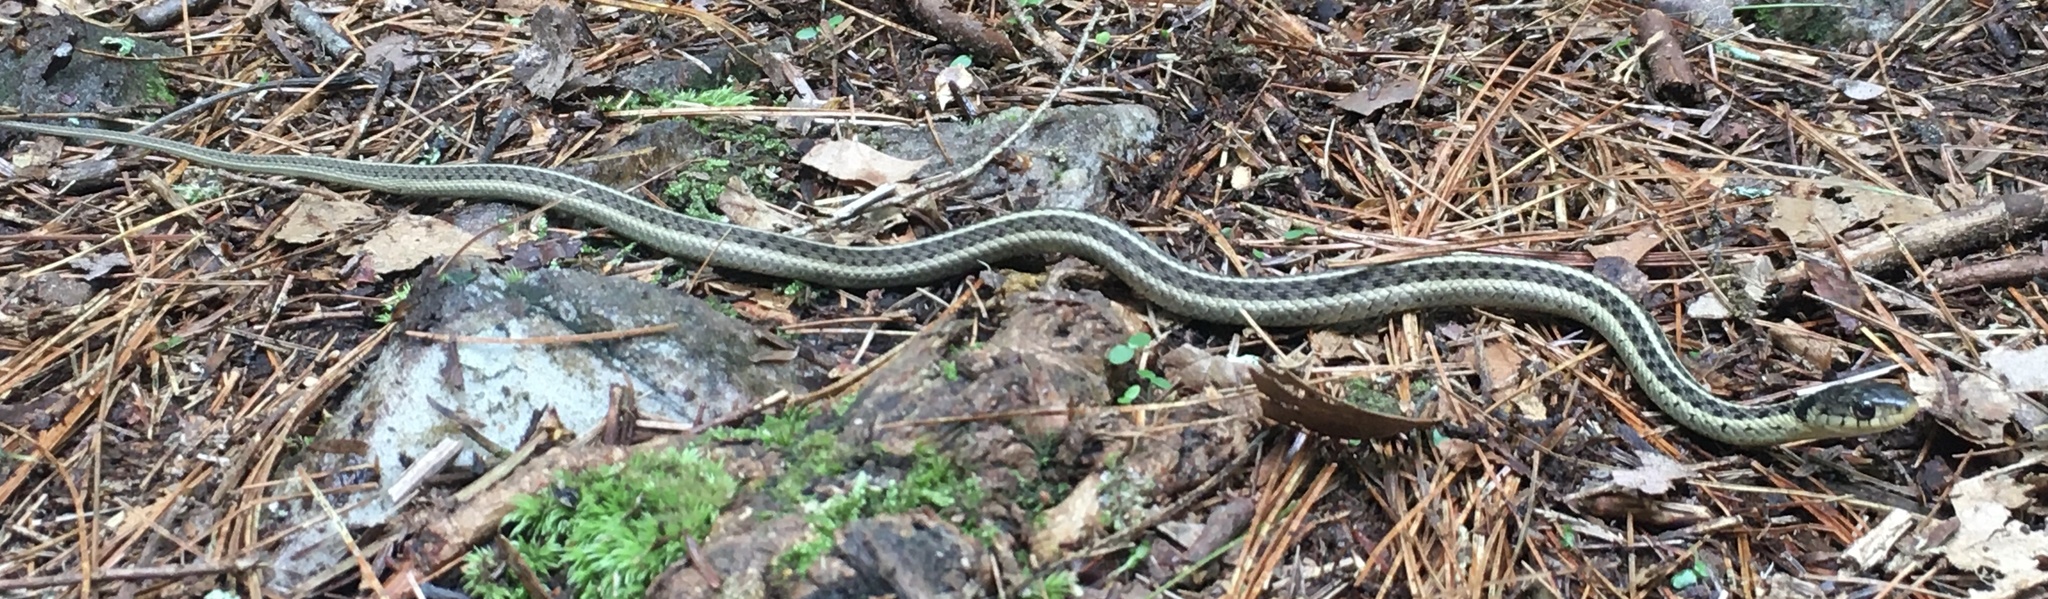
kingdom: Animalia
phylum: Chordata
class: Squamata
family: Colubridae
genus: Thamnophis
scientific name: Thamnophis sirtalis
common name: Common garter snake
